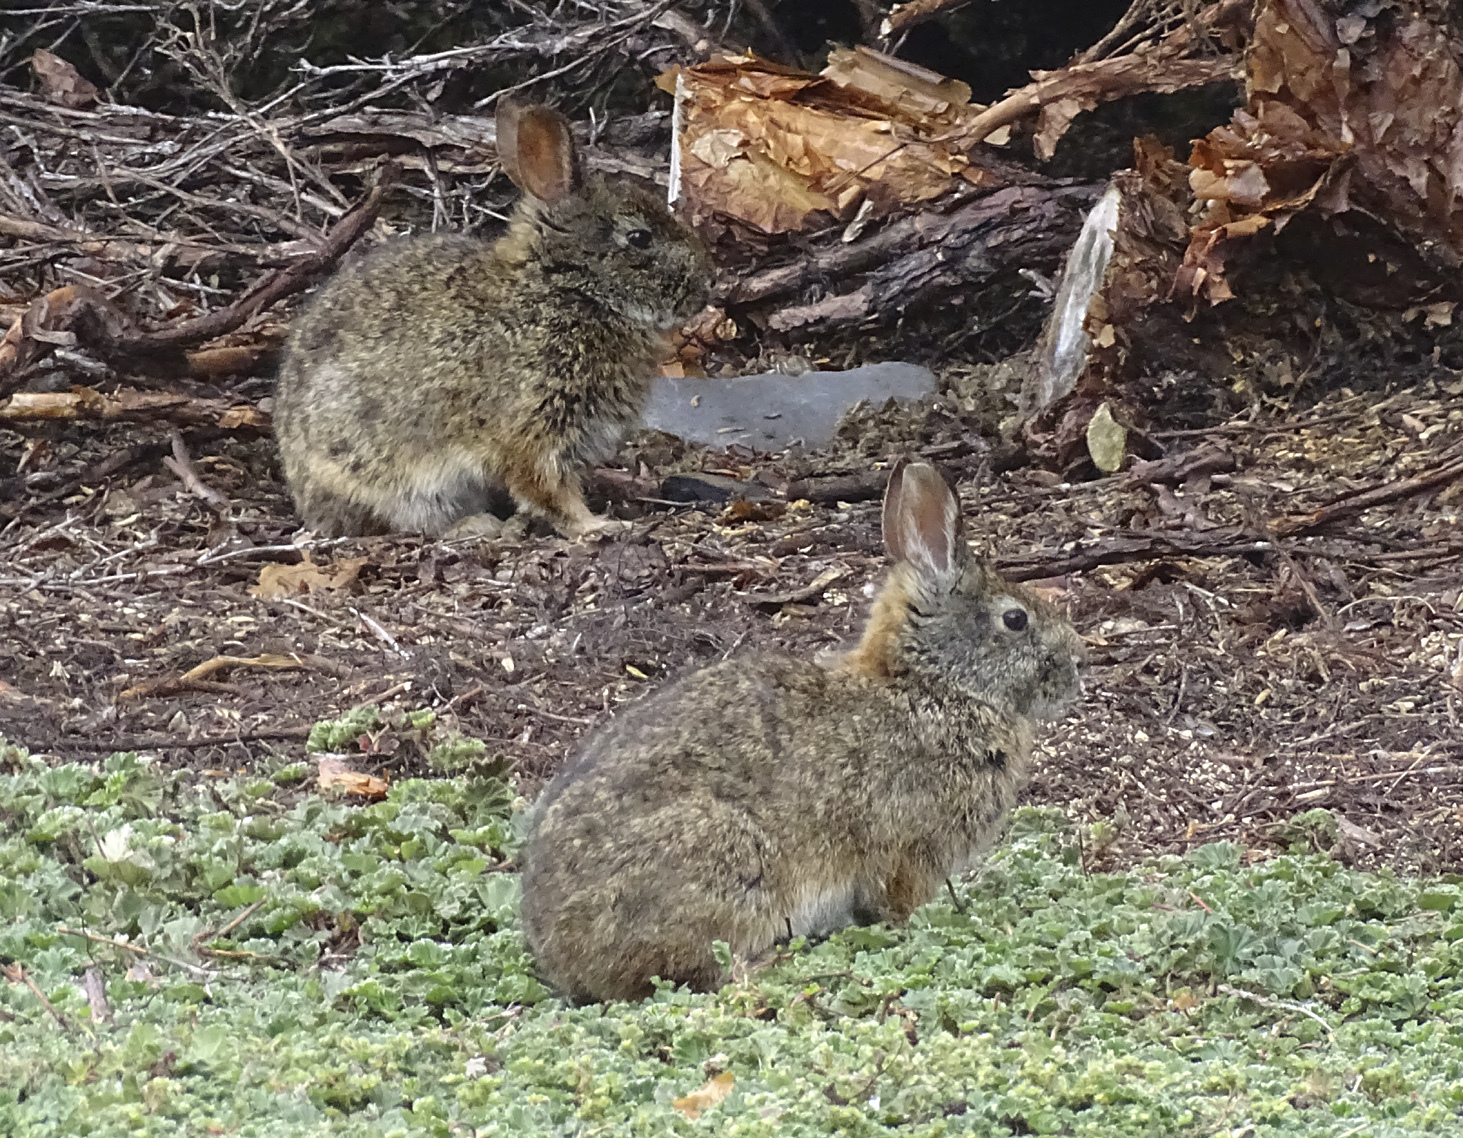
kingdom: Animalia
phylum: Chordata
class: Mammalia
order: Lagomorpha
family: Leporidae
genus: Sylvilagus
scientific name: Sylvilagus andinus
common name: Andean cottontail
